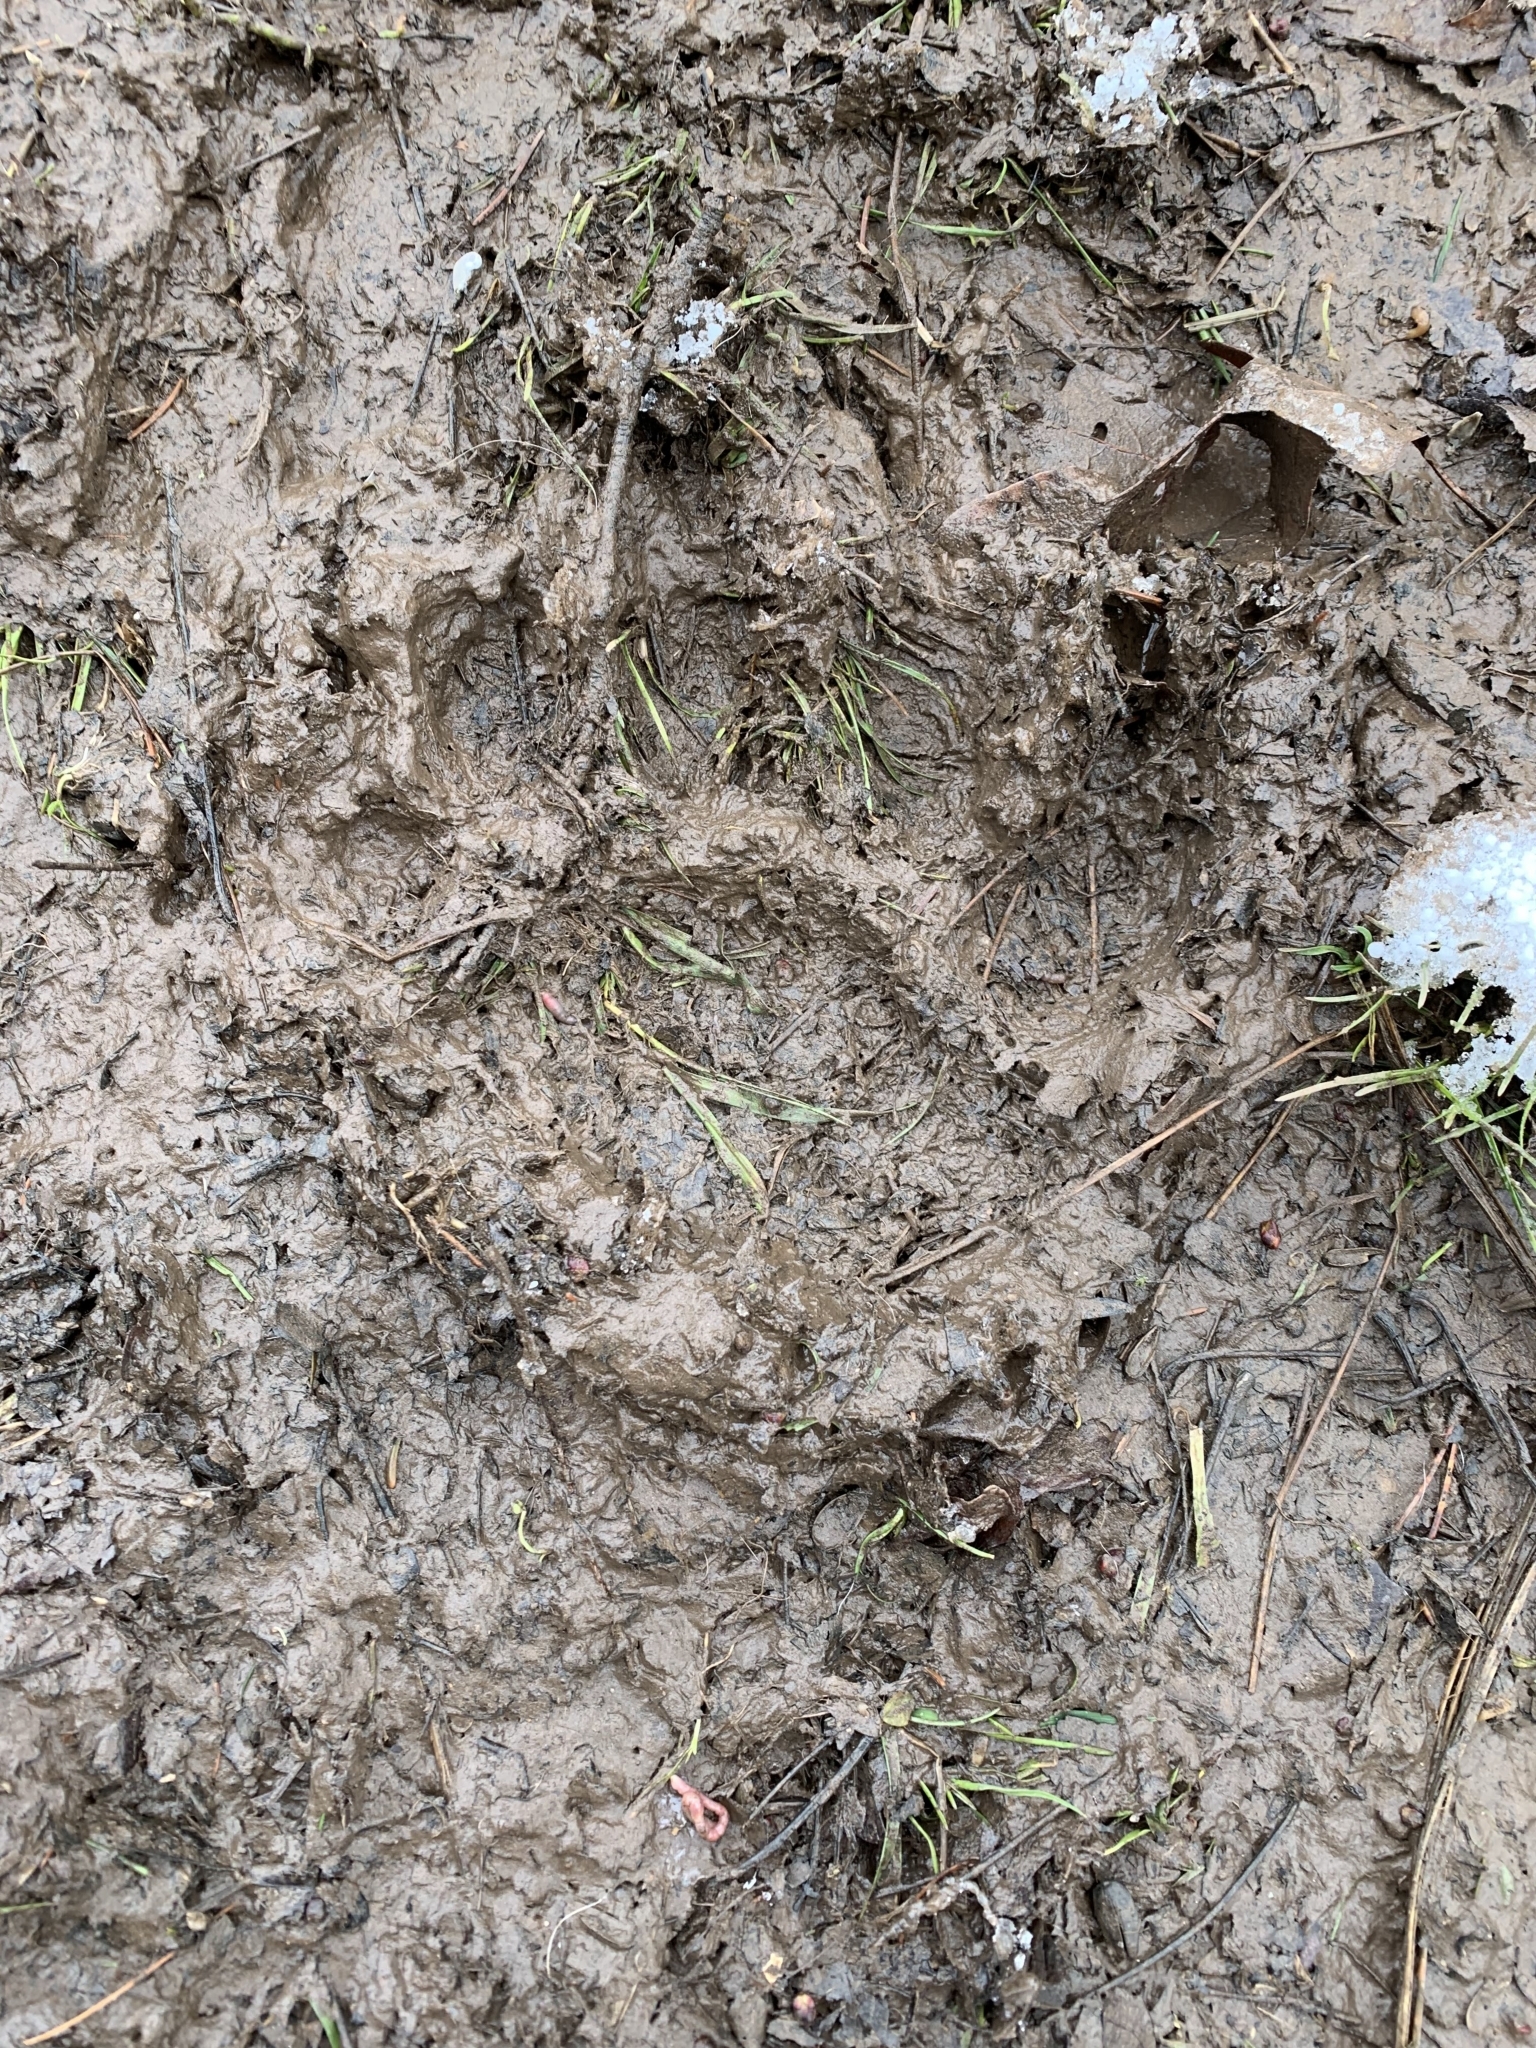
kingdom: Animalia
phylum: Chordata
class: Mammalia
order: Carnivora
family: Ursidae
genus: Ursus
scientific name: Ursus americanus
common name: American black bear
